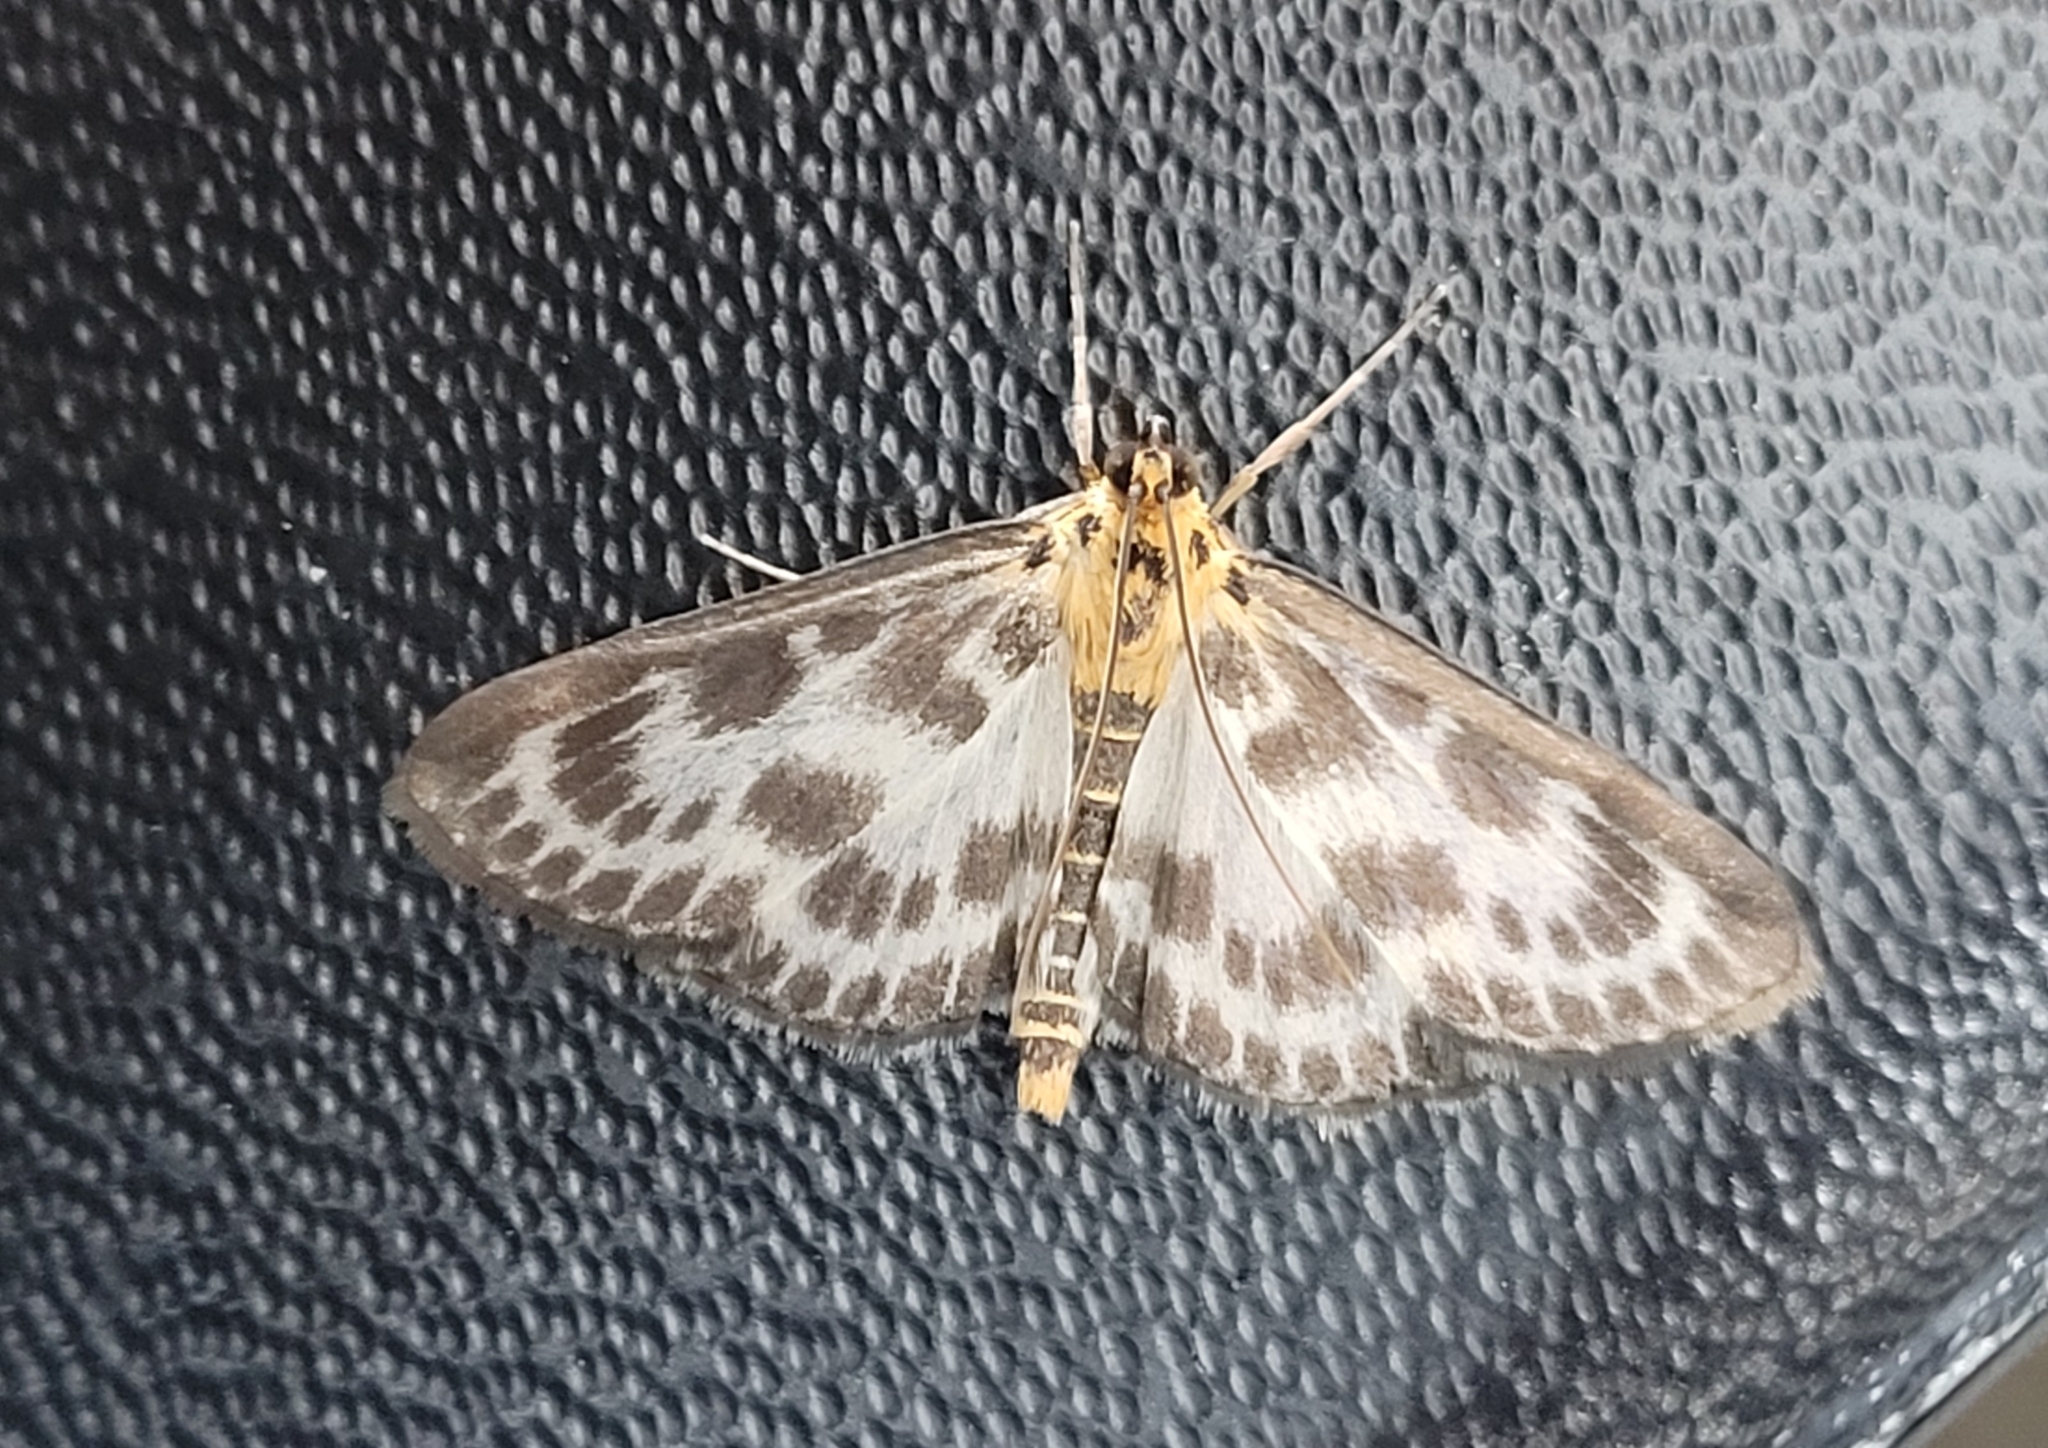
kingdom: Animalia
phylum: Arthropoda
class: Insecta
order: Lepidoptera
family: Crambidae
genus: Anania
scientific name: Anania hortulata
